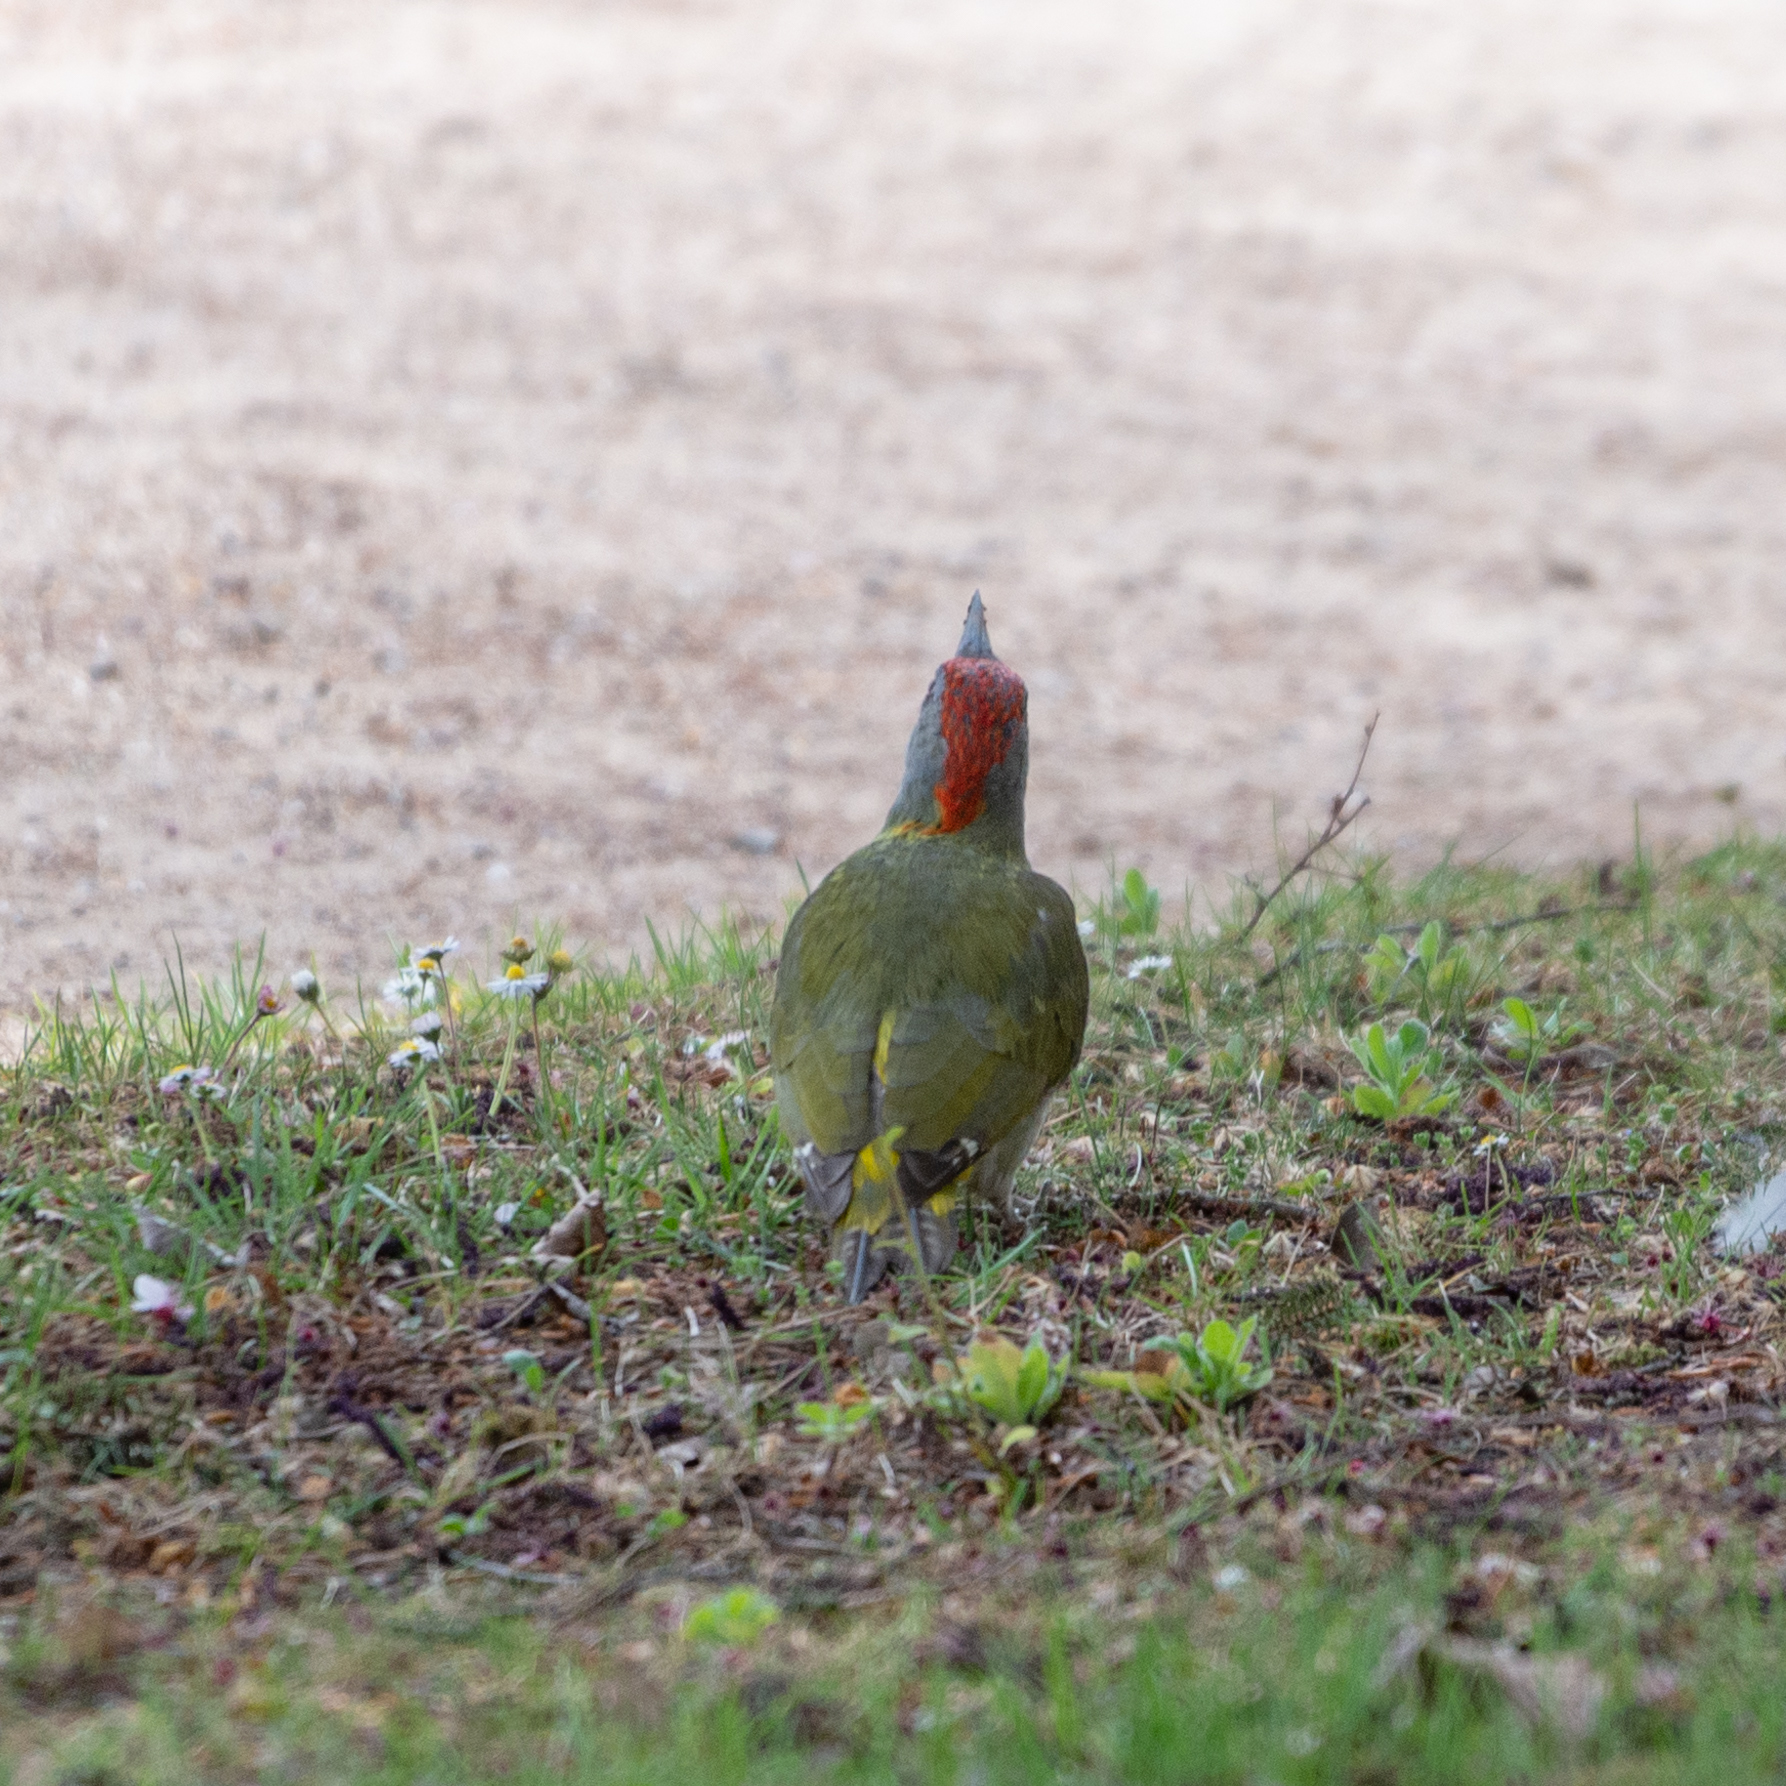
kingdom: Animalia
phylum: Chordata
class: Aves
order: Piciformes
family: Picidae
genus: Picus
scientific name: Picus sharpei
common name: Iberian green woodpecker
